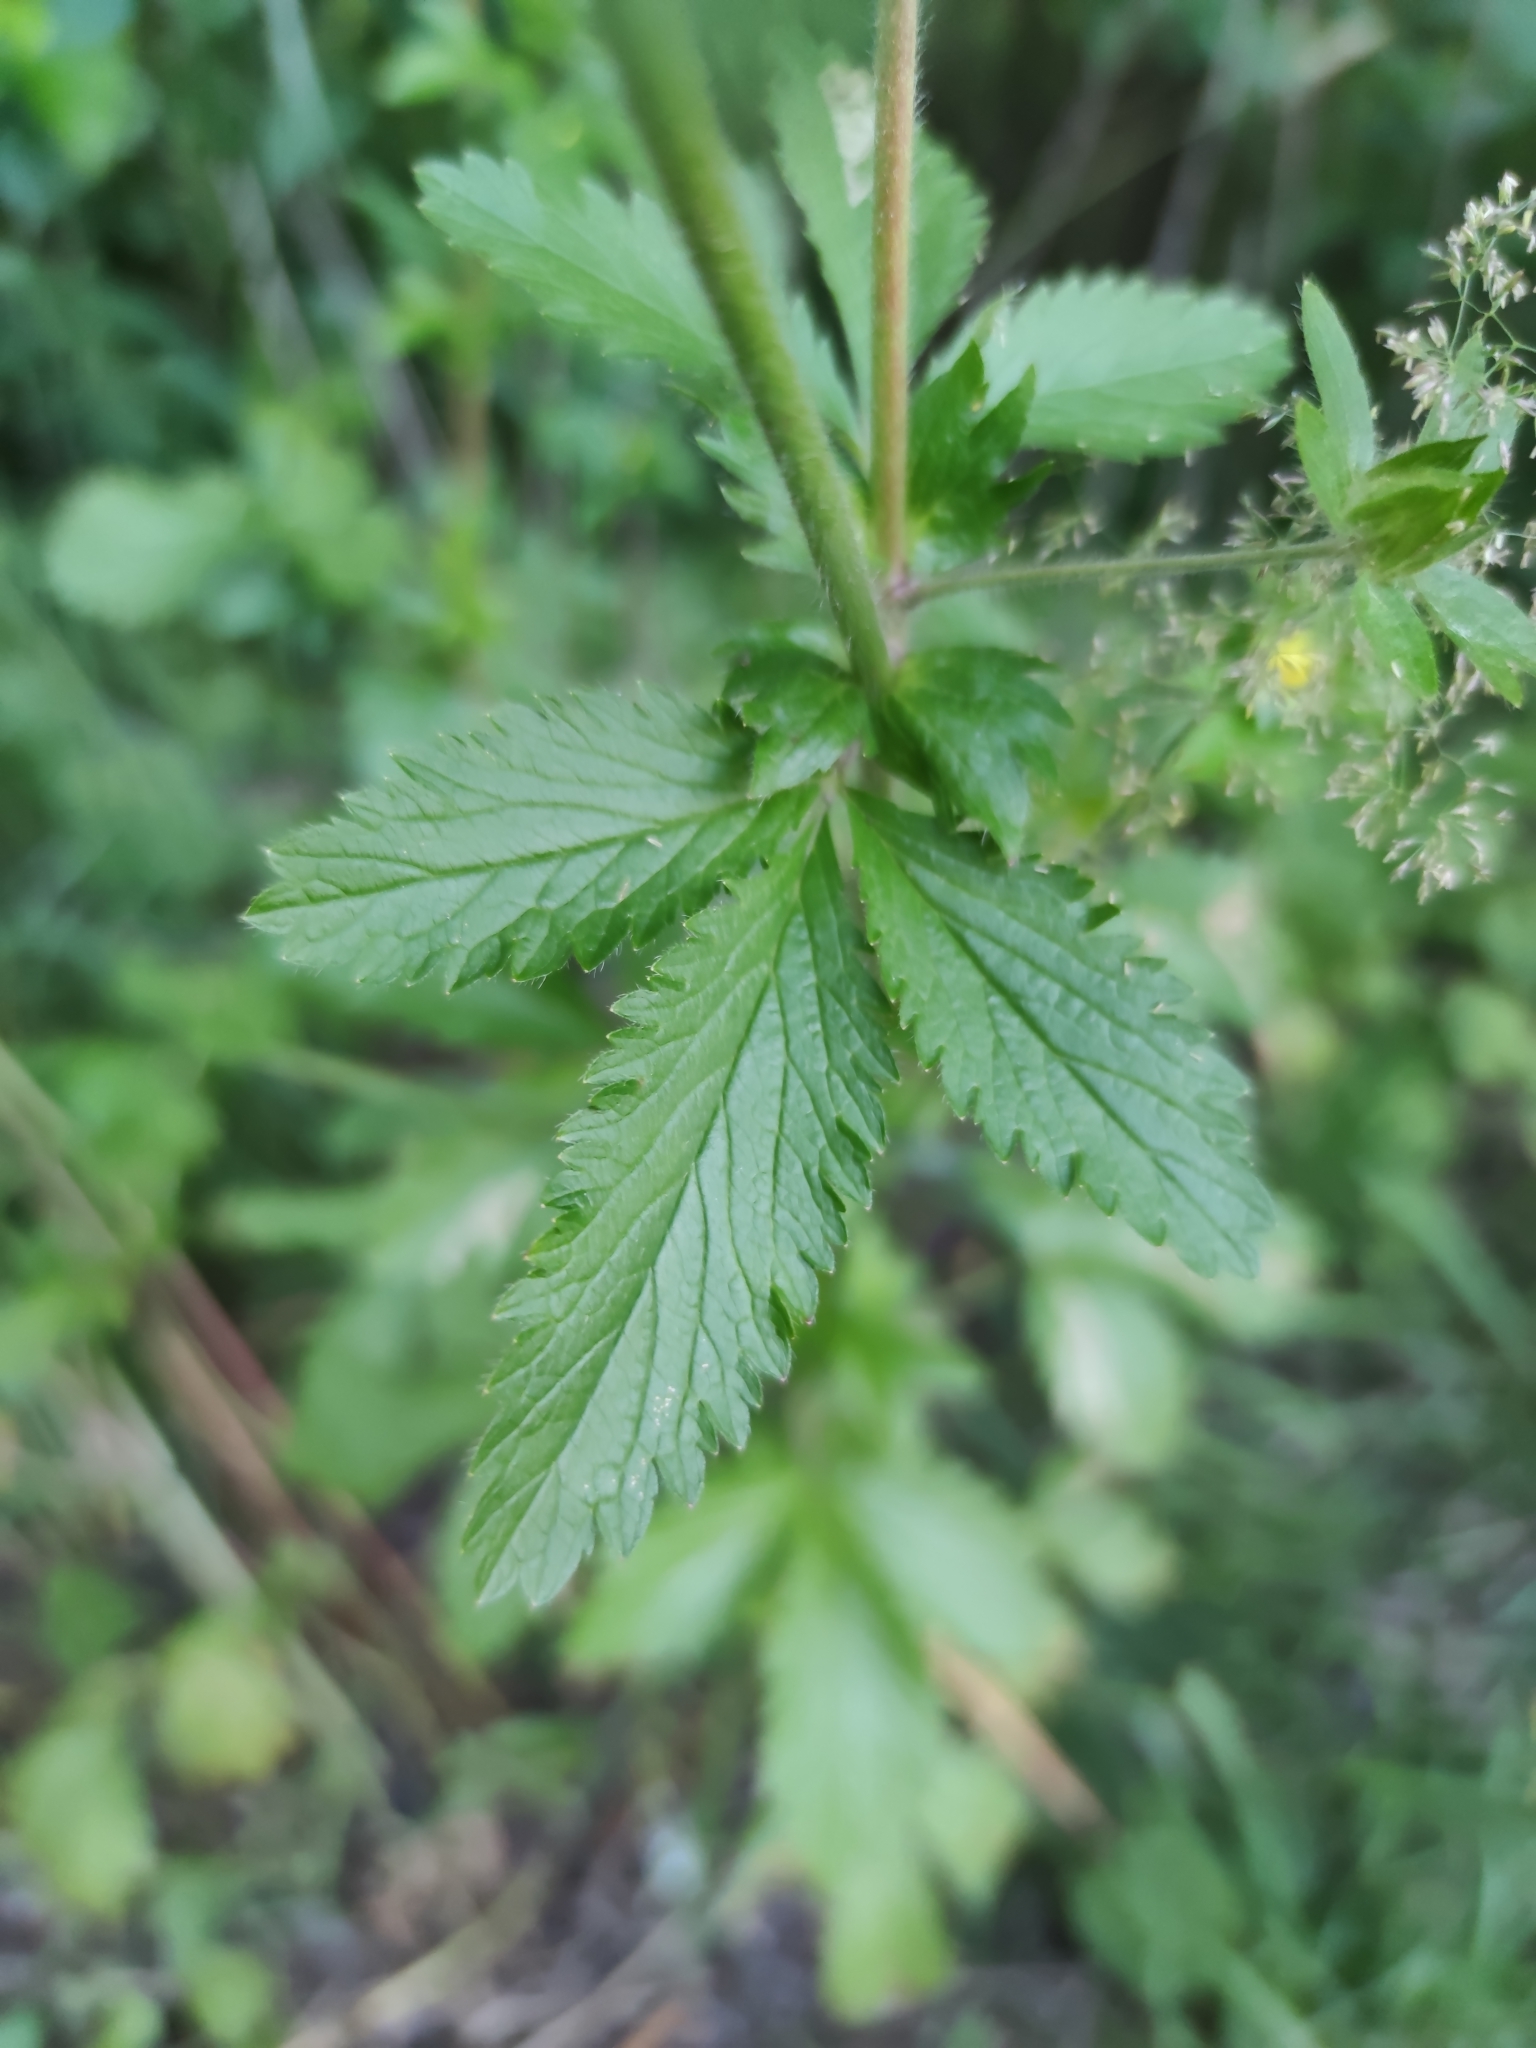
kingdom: Plantae
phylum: Tracheophyta
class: Magnoliopsida
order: Rosales
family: Rosaceae
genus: Potentilla
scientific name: Potentilla norvegica
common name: Ternate-leaved cinquefoil
